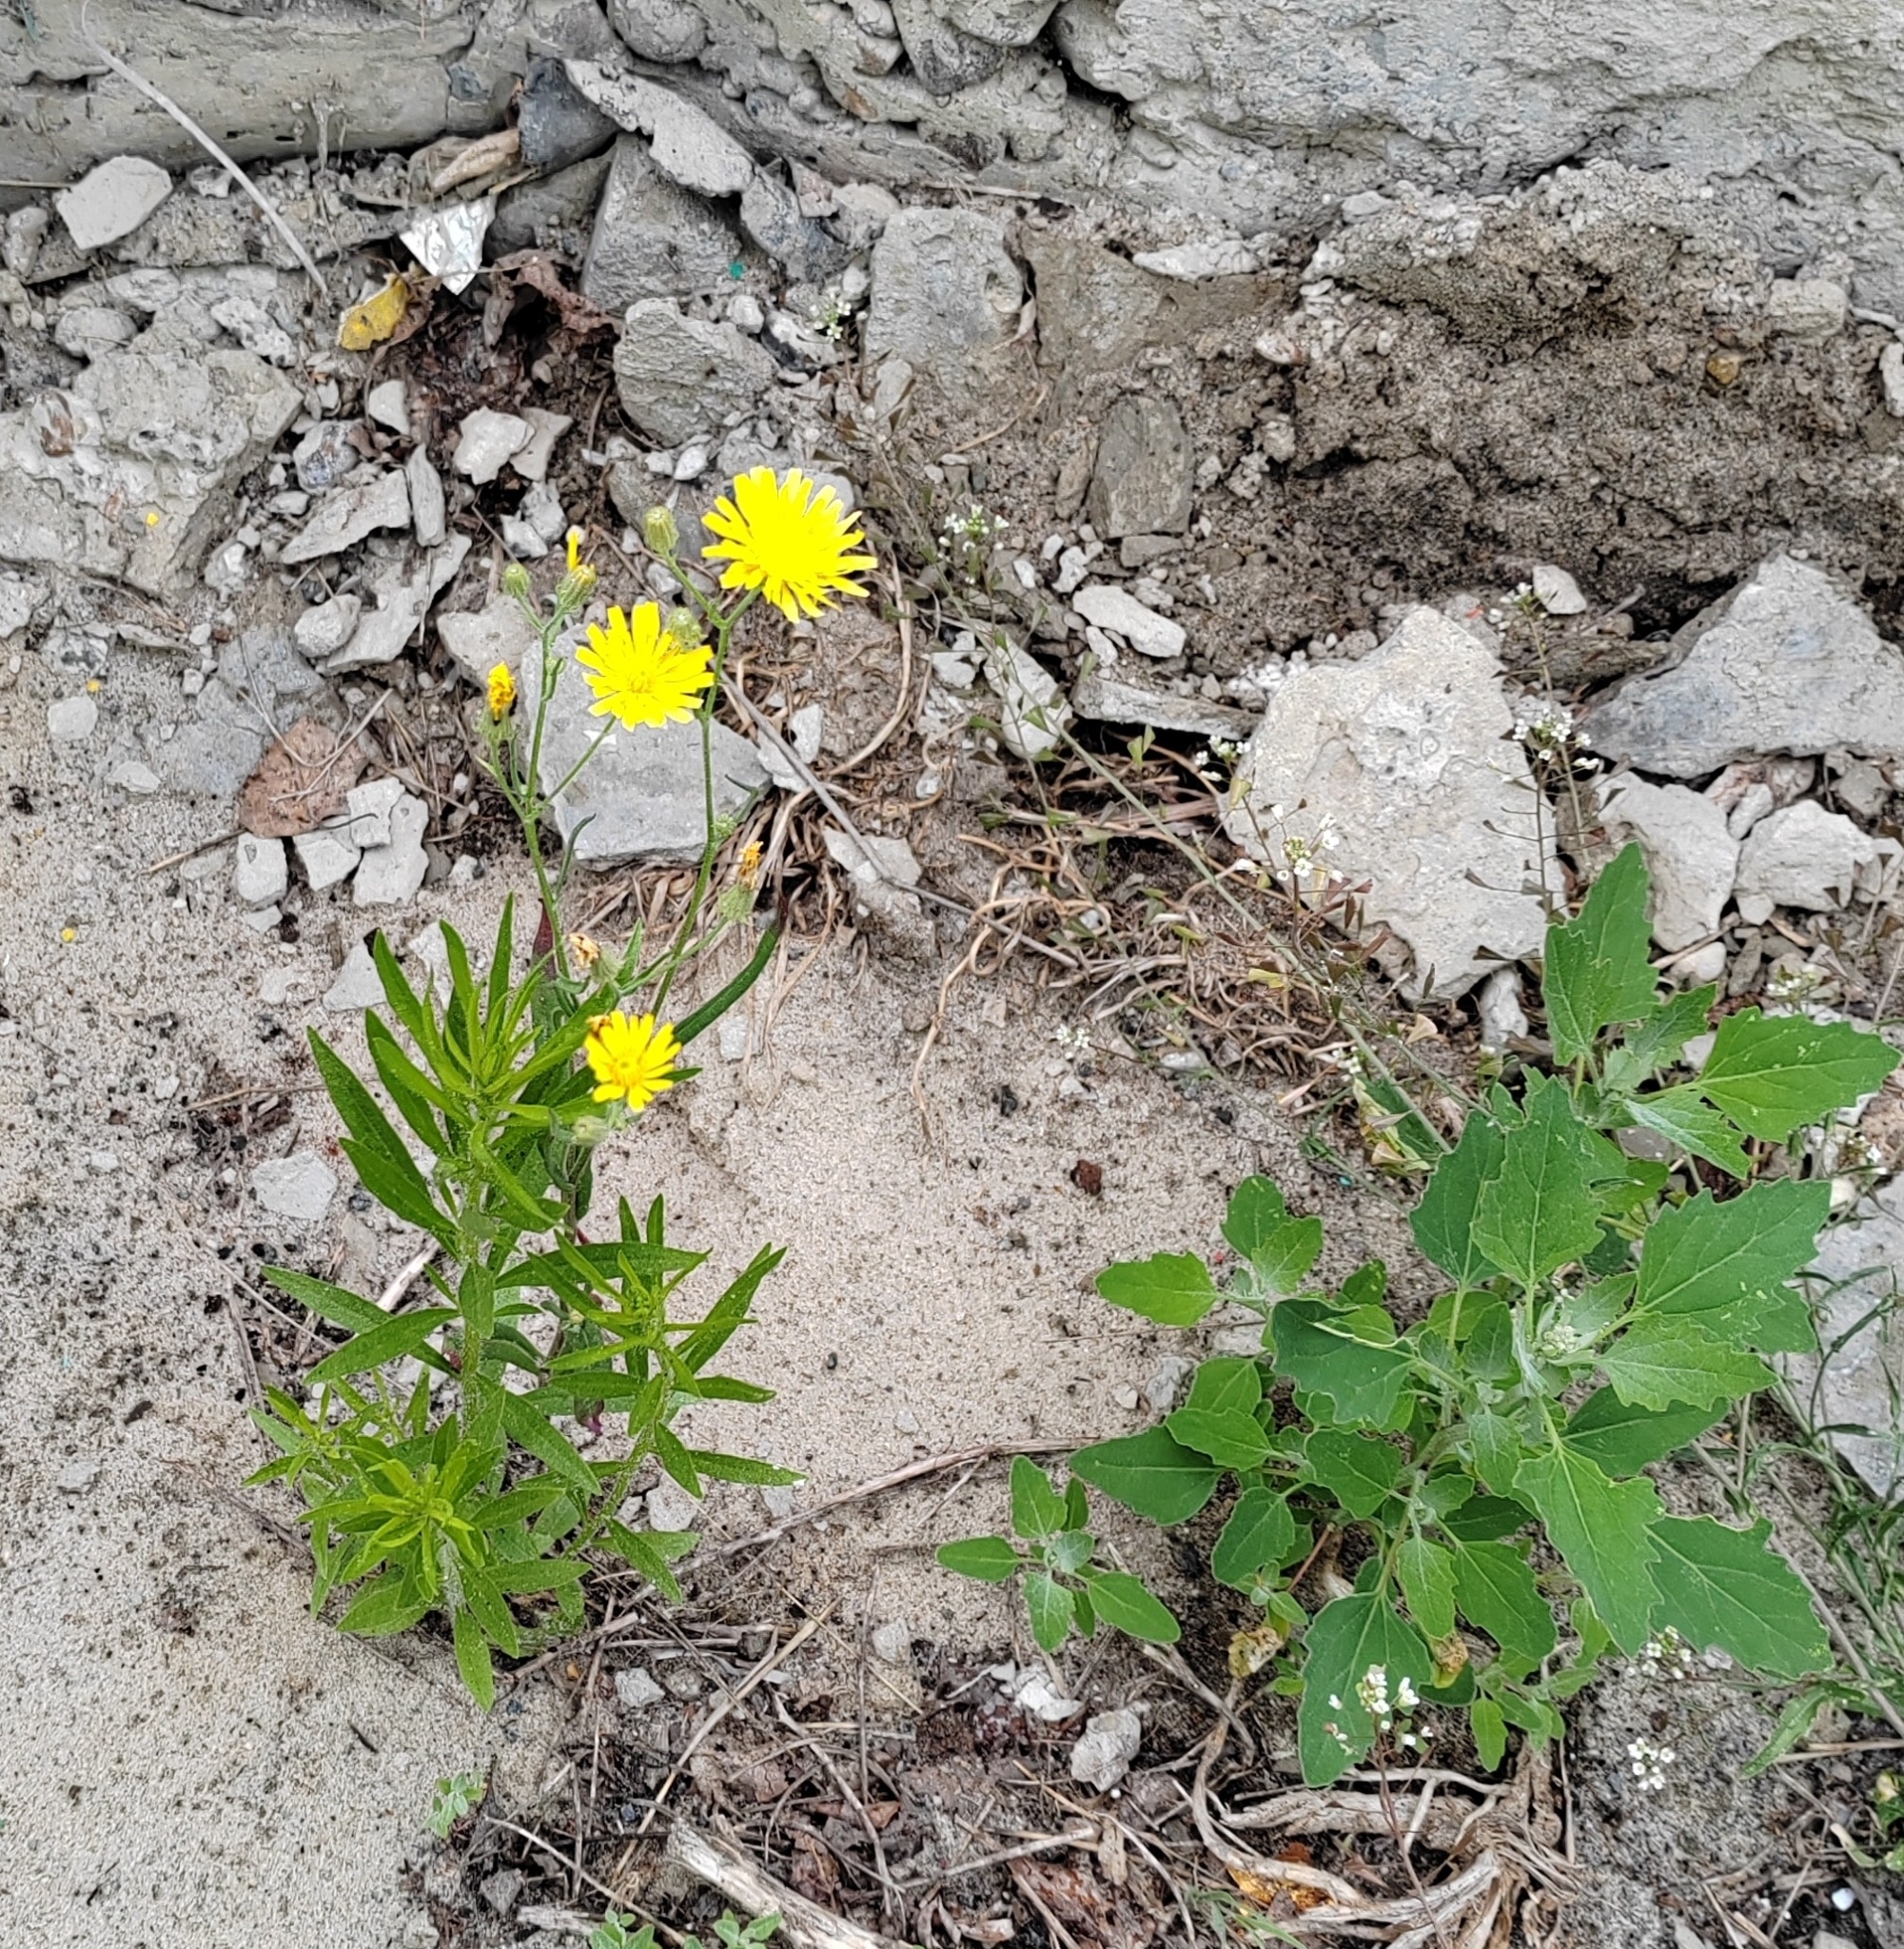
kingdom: Plantae
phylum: Tracheophyta
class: Magnoliopsida
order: Asterales
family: Asteraceae
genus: Crepis
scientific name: Crepis tectorum
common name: Narrow-leaved hawk's-beard
